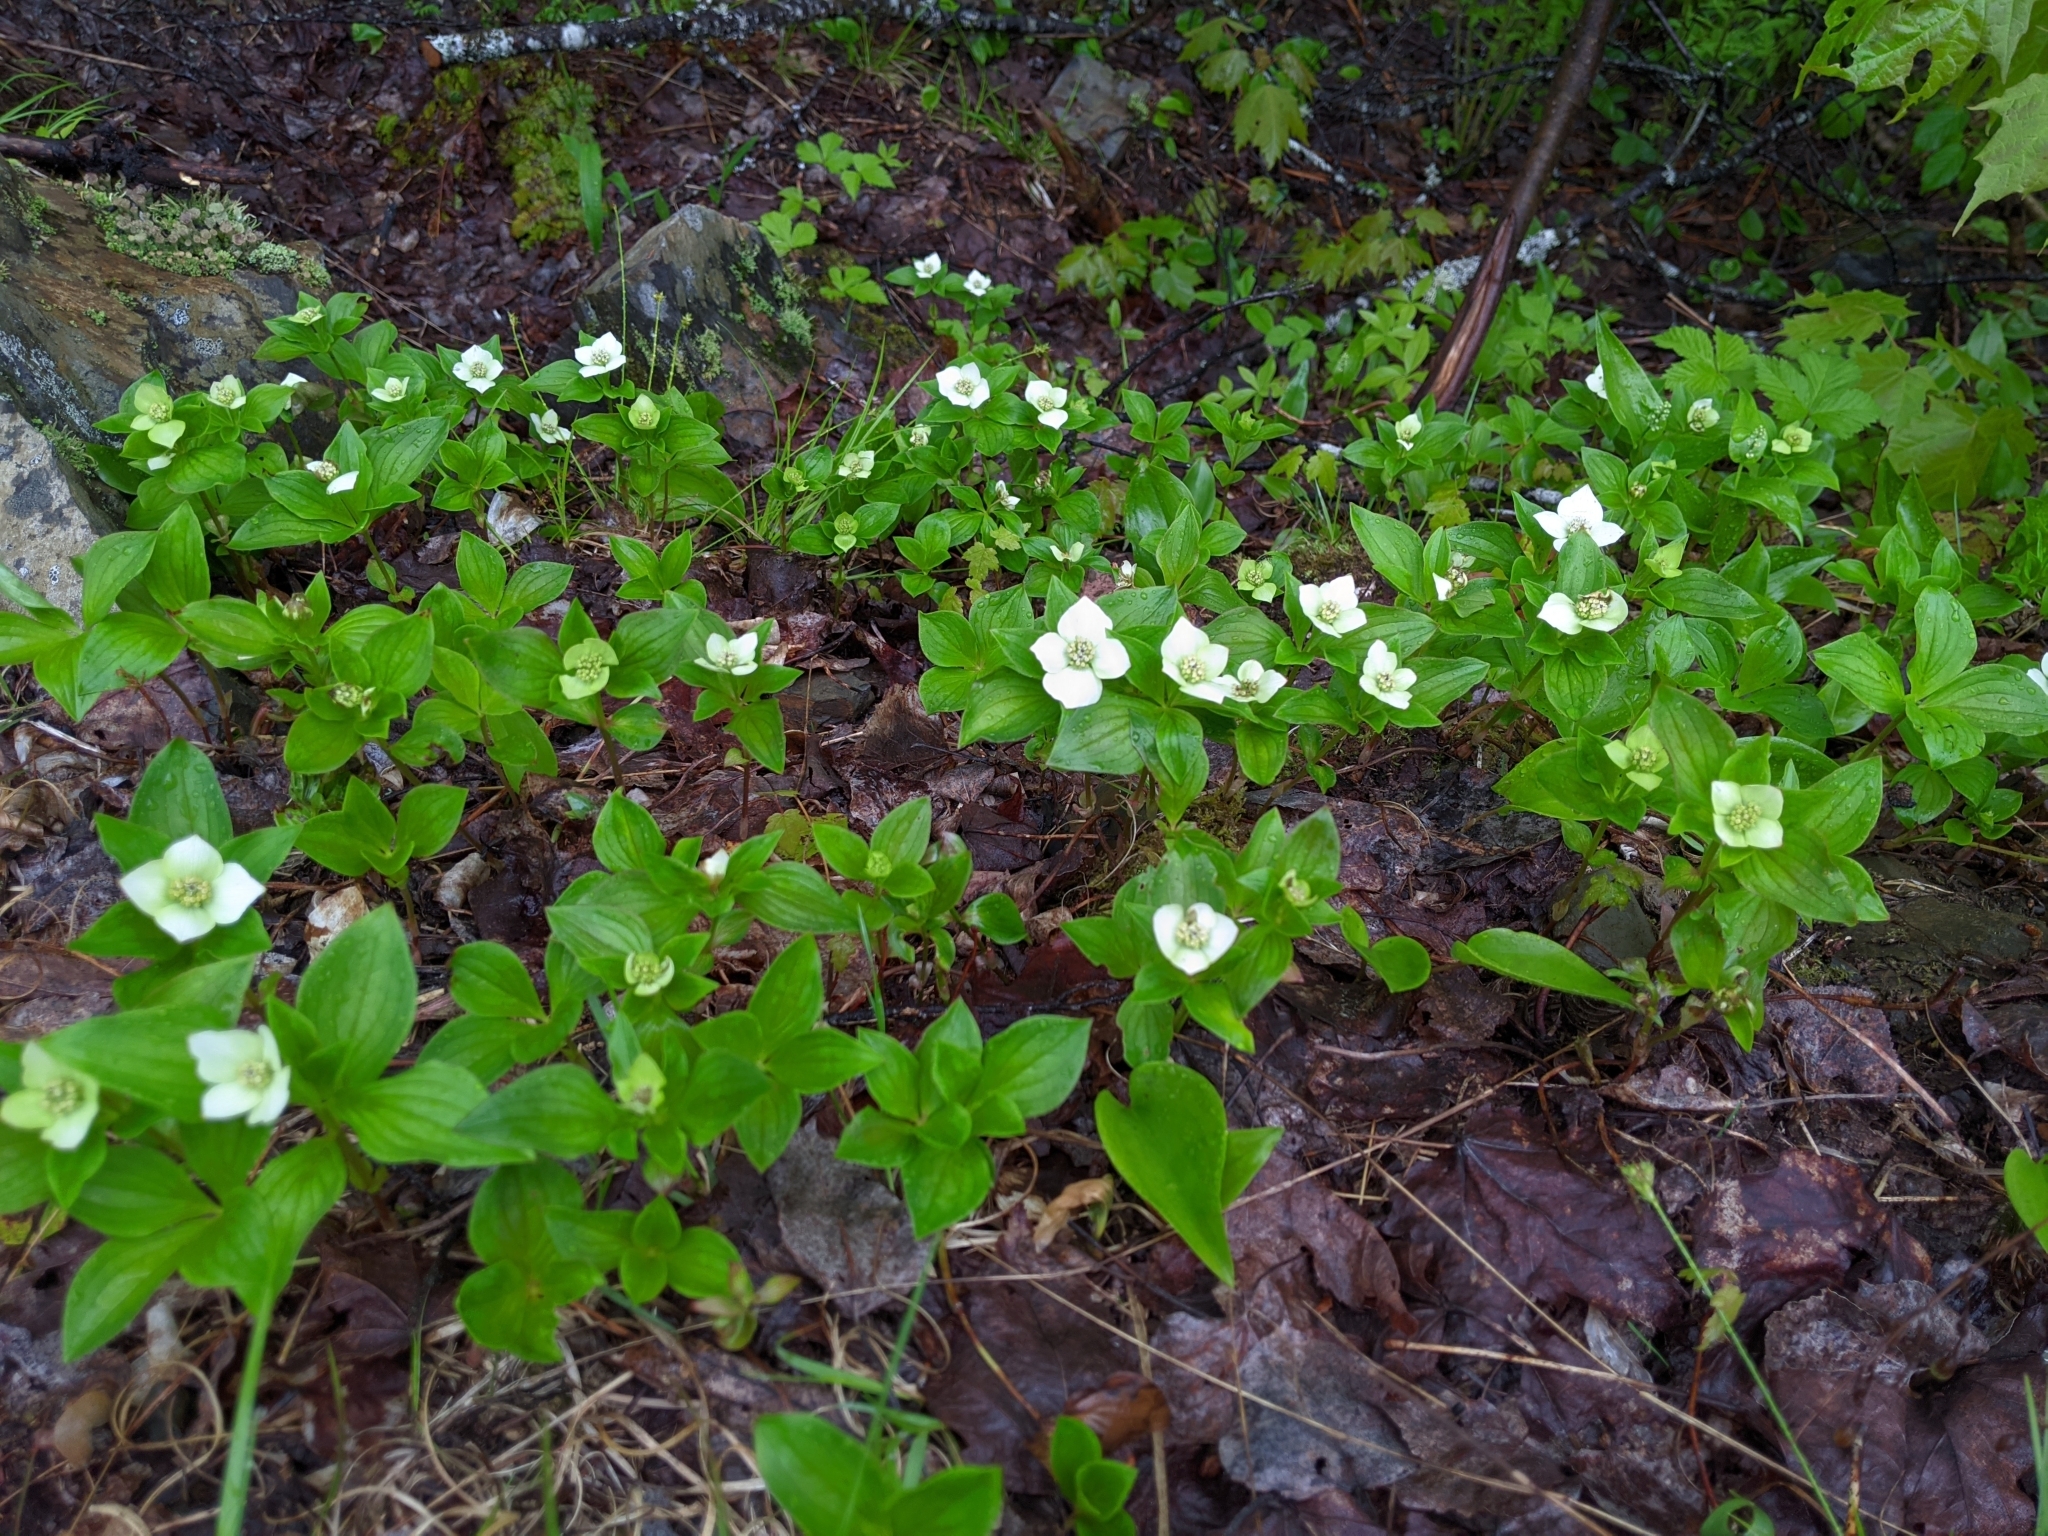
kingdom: Plantae
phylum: Tracheophyta
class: Magnoliopsida
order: Cornales
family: Cornaceae
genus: Cornus
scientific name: Cornus canadensis
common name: Creeping dogwood
